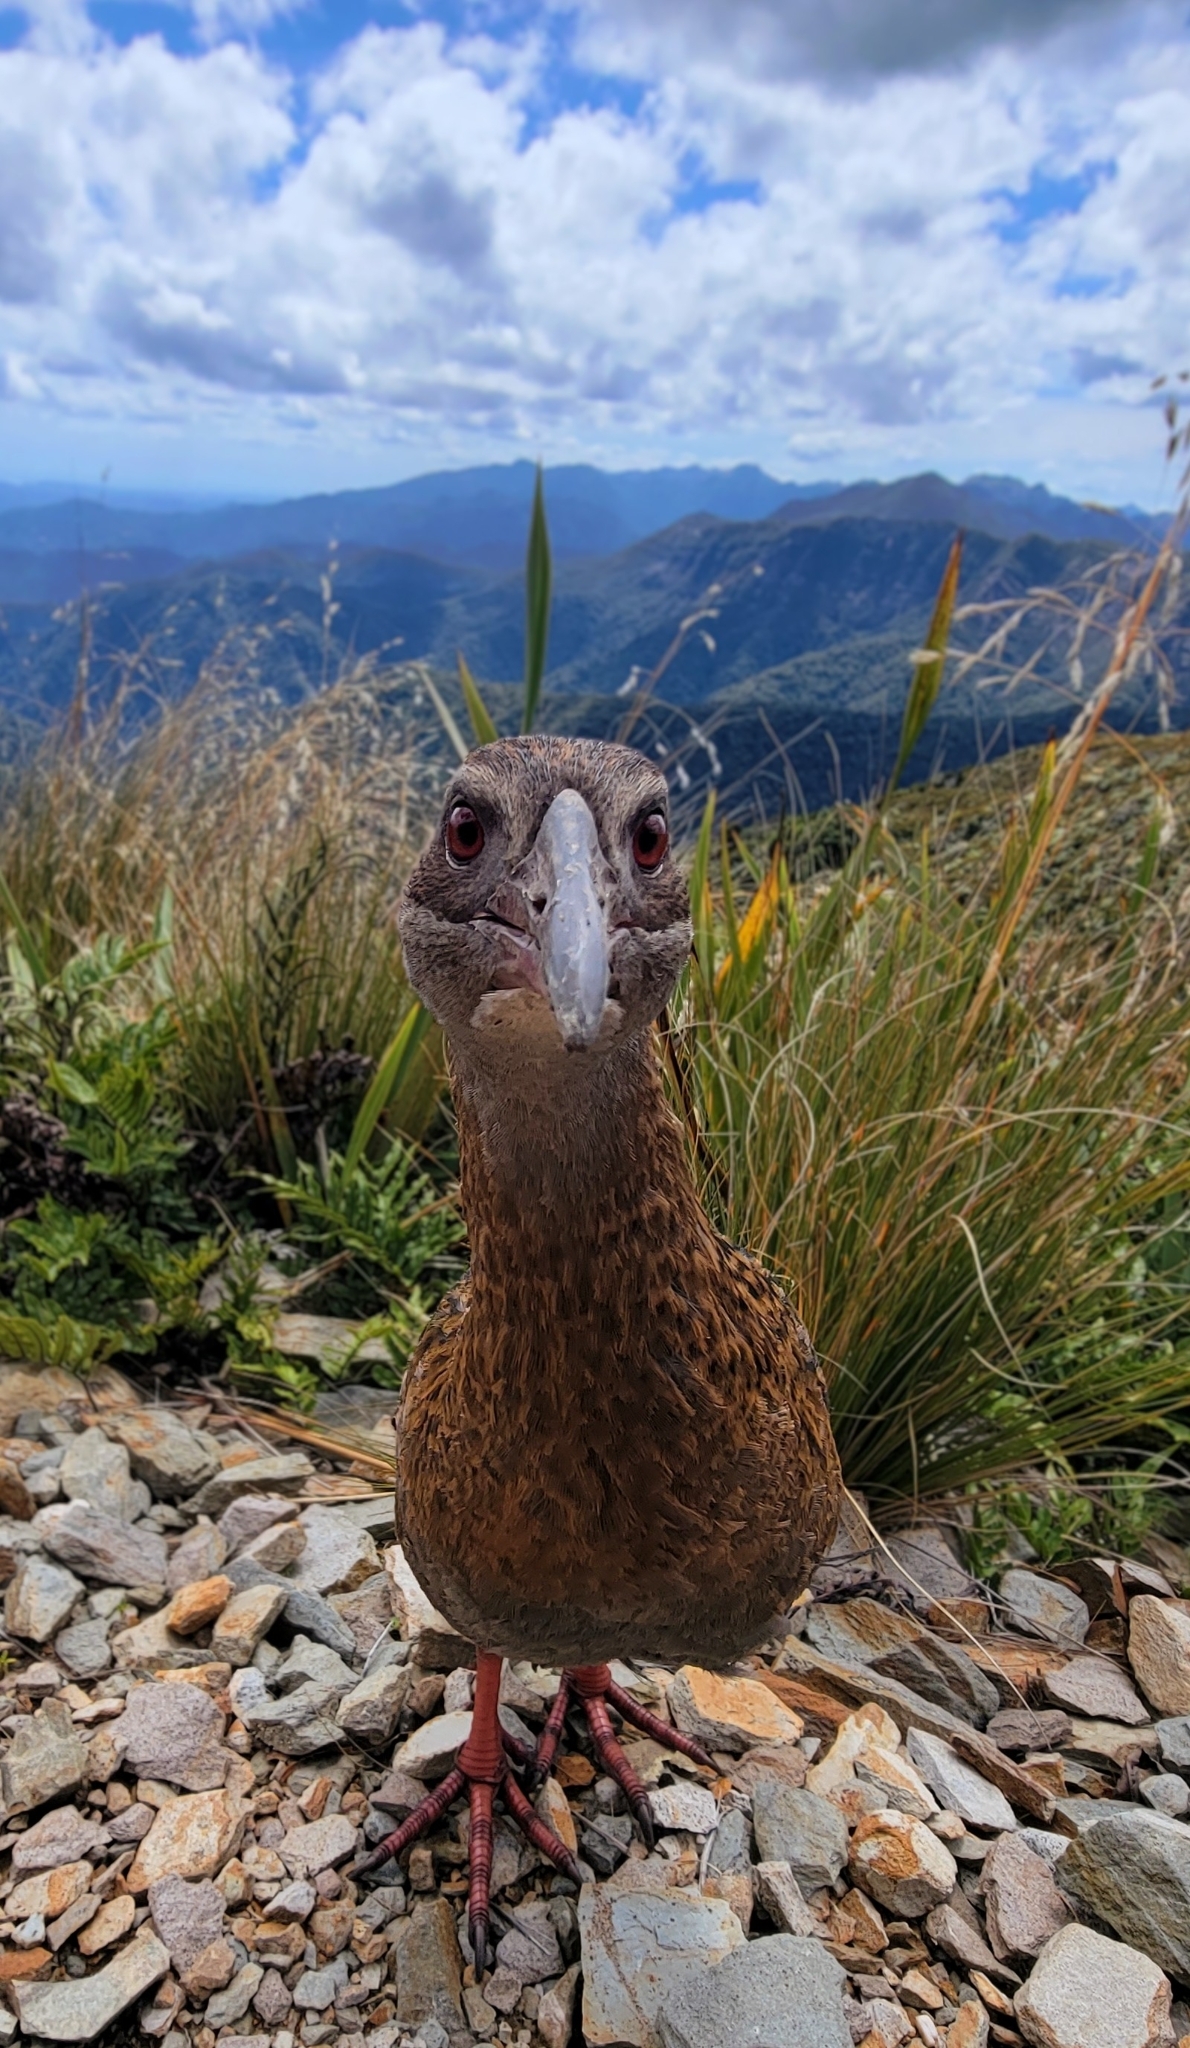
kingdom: Animalia
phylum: Chordata
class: Aves
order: Gruiformes
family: Rallidae
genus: Gallirallus
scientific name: Gallirallus australis
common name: Weka
